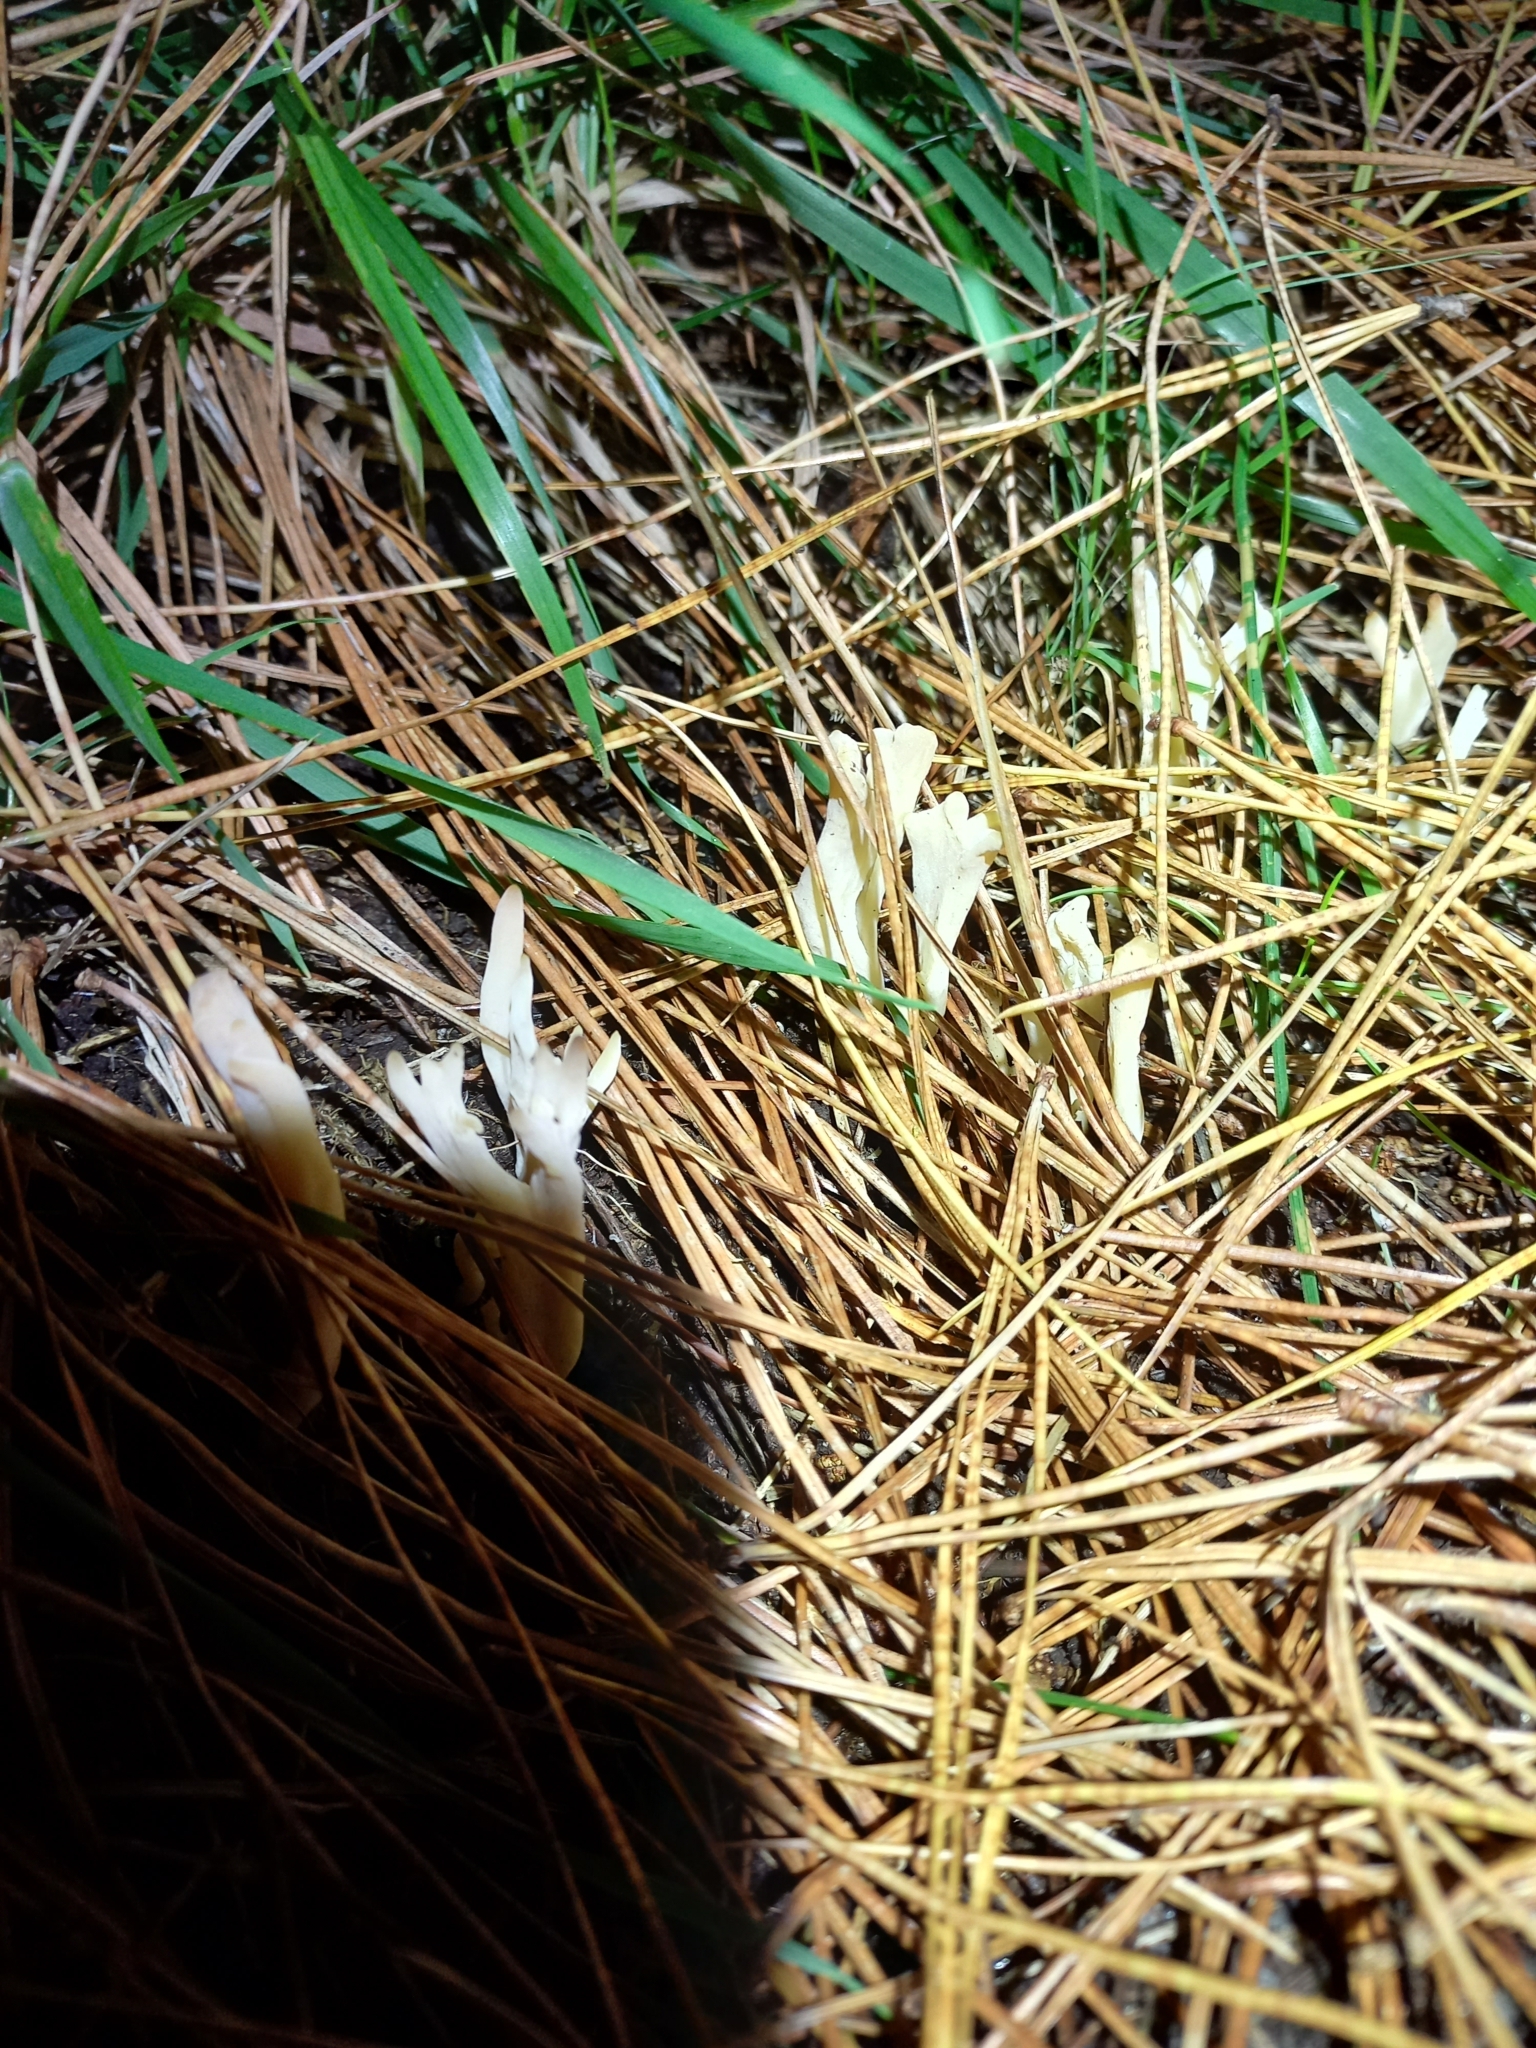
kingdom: Fungi
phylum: Basidiomycota
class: Agaricomycetes
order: Cantharellales
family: Hydnaceae
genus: Clavulina
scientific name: Clavulina rugosa
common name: Wrinkled club
